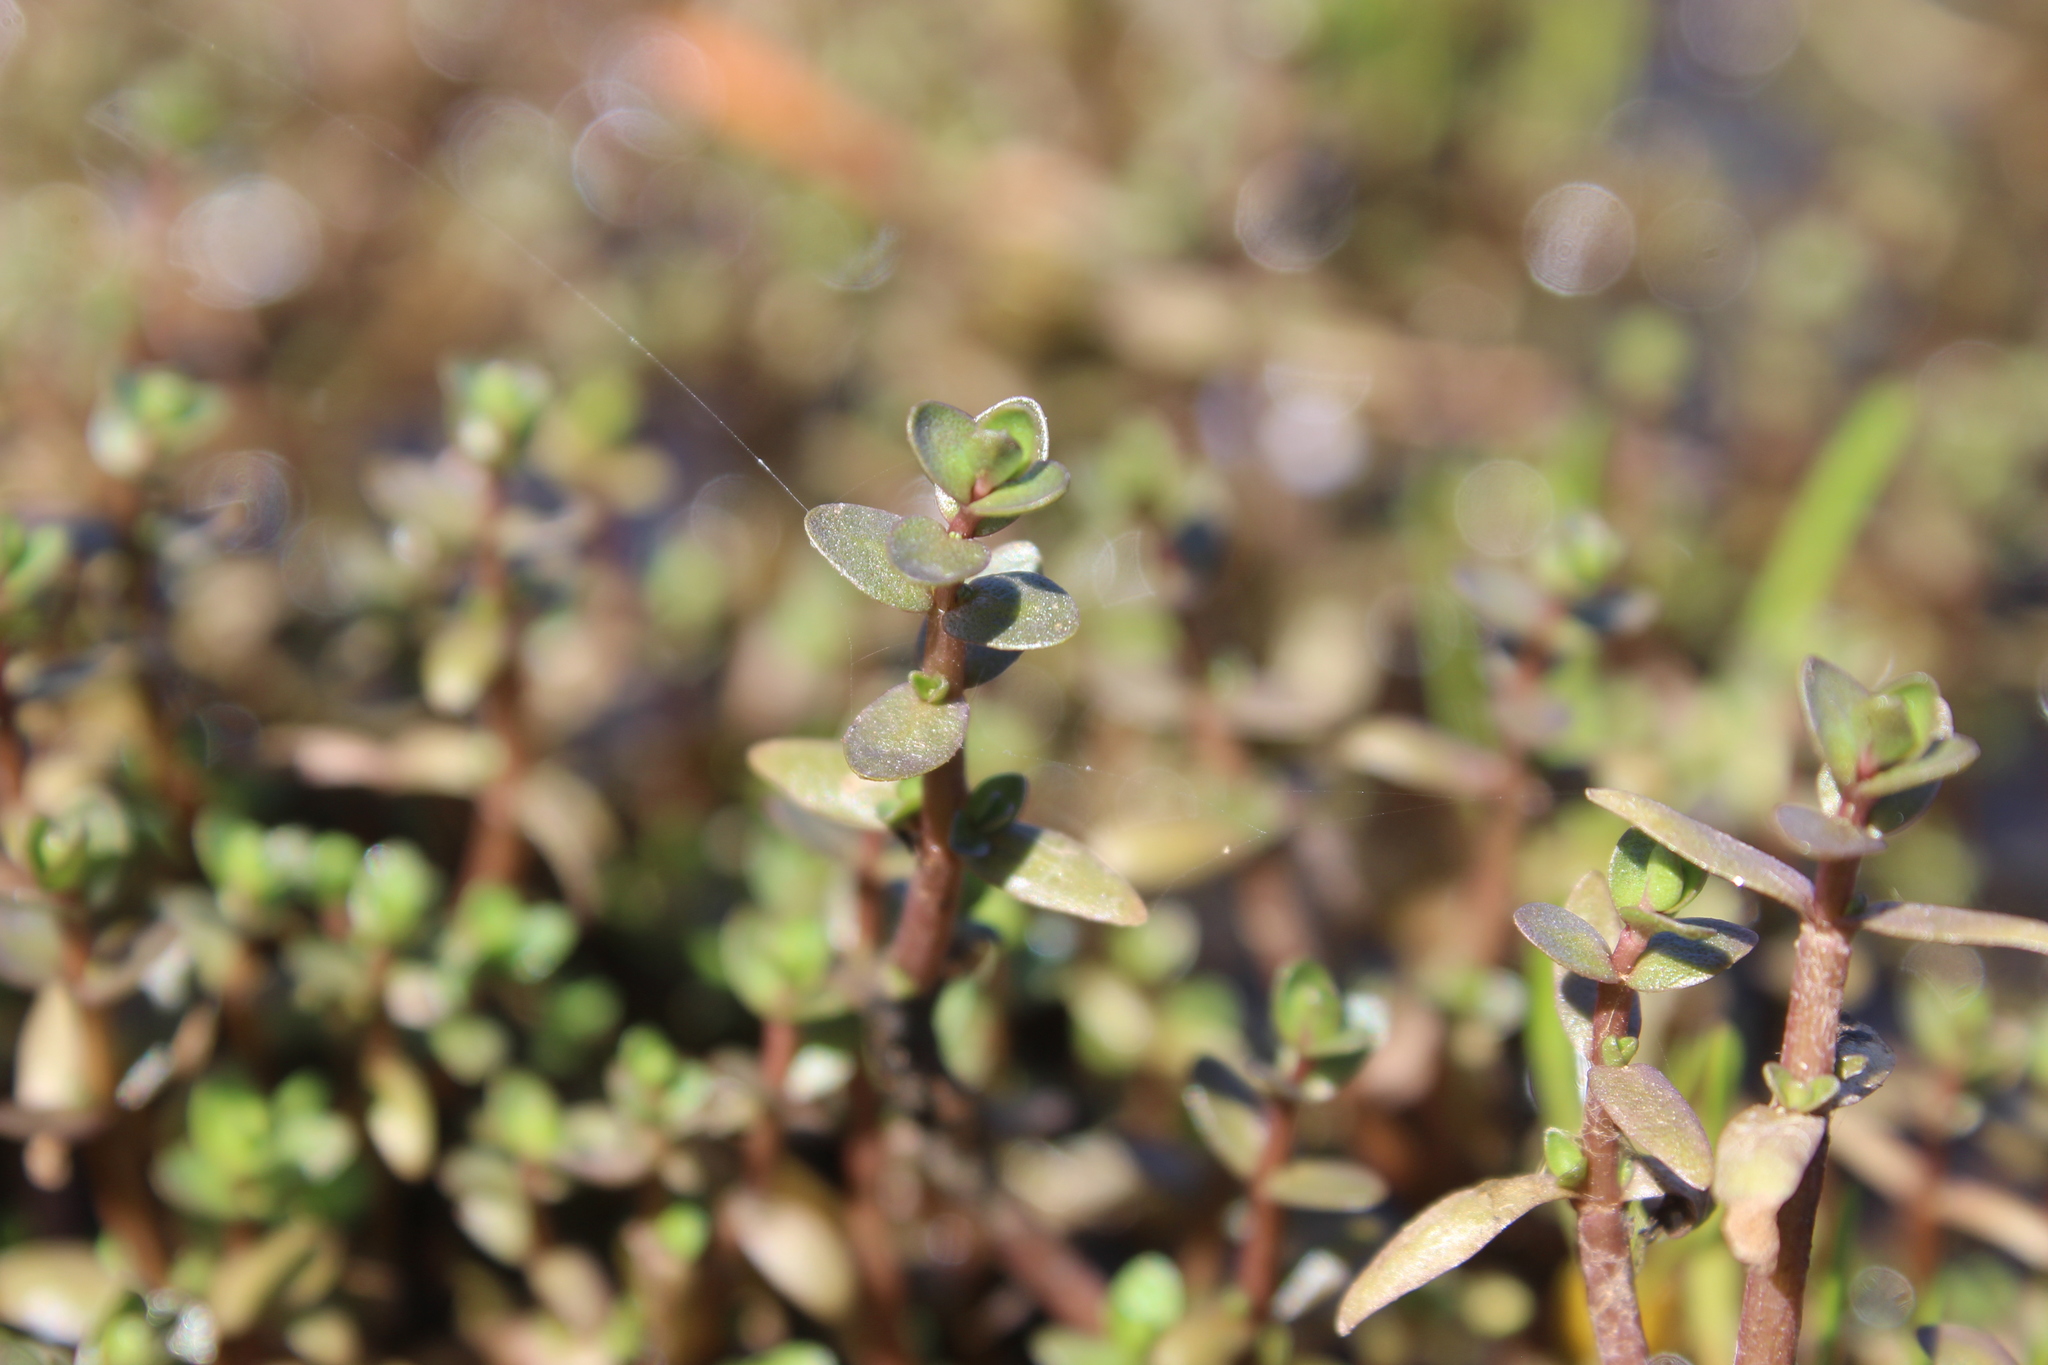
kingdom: Plantae
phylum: Tracheophyta
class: Magnoliopsida
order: Lamiales
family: Phrymaceae
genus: Thyridia
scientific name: Thyridia repens
